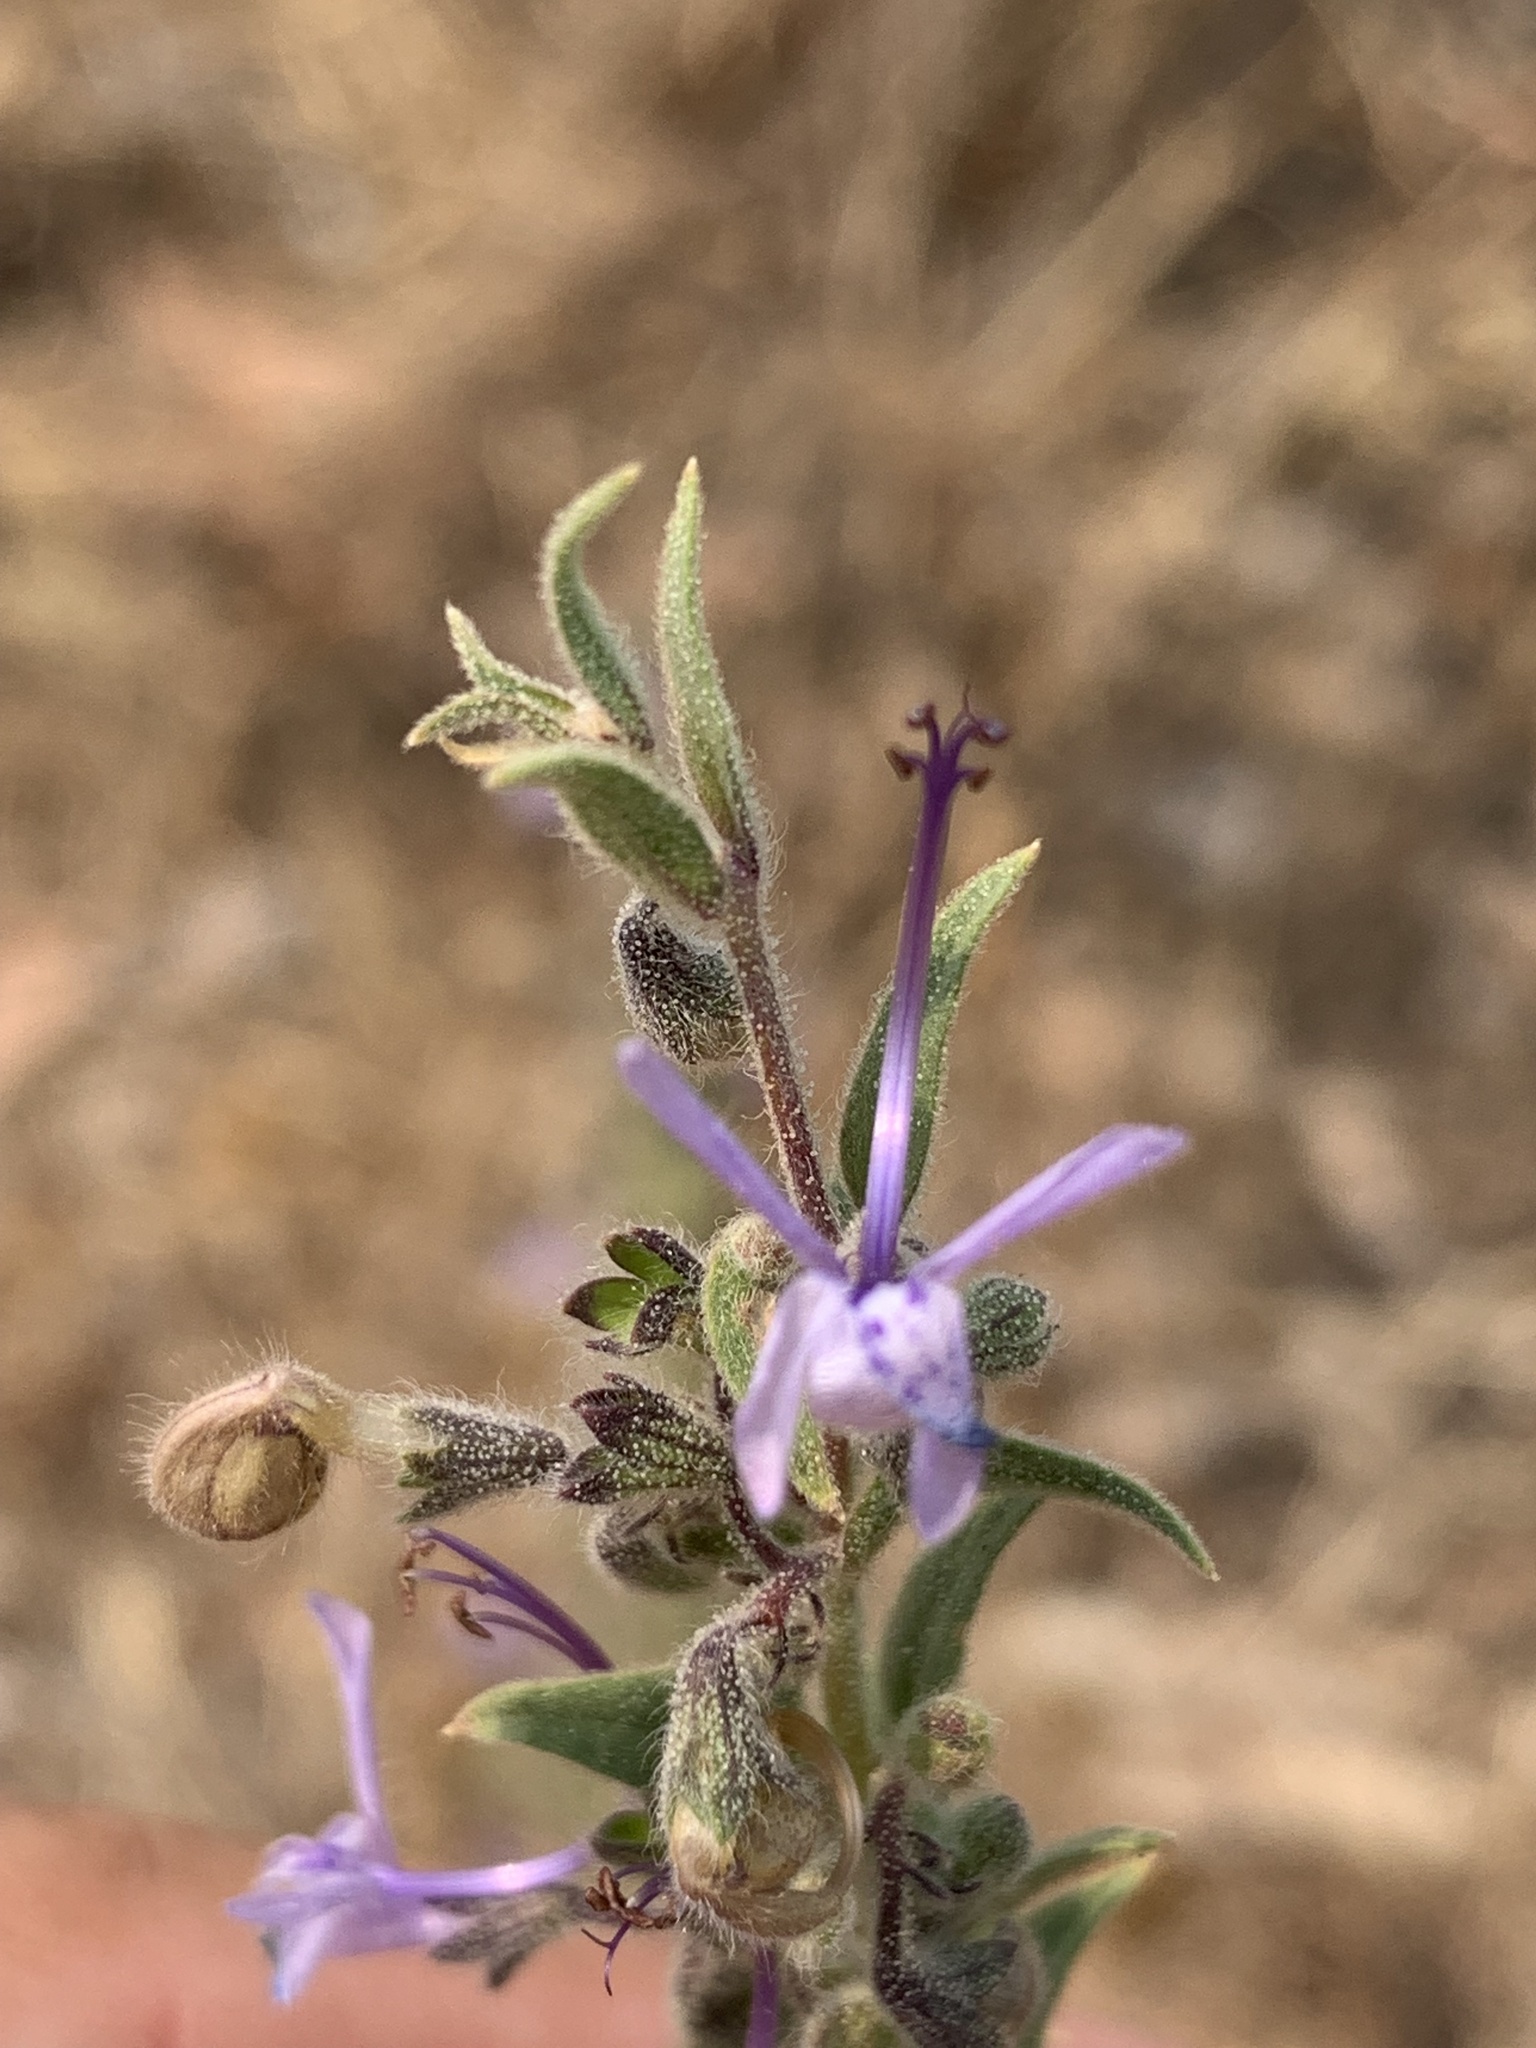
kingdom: Plantae
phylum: Tracheophyta
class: Magnoliopsida
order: Lamiales
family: Lamiaceae
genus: Trichostema
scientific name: Trichostema lanceolatum
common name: Vinegar-weed
